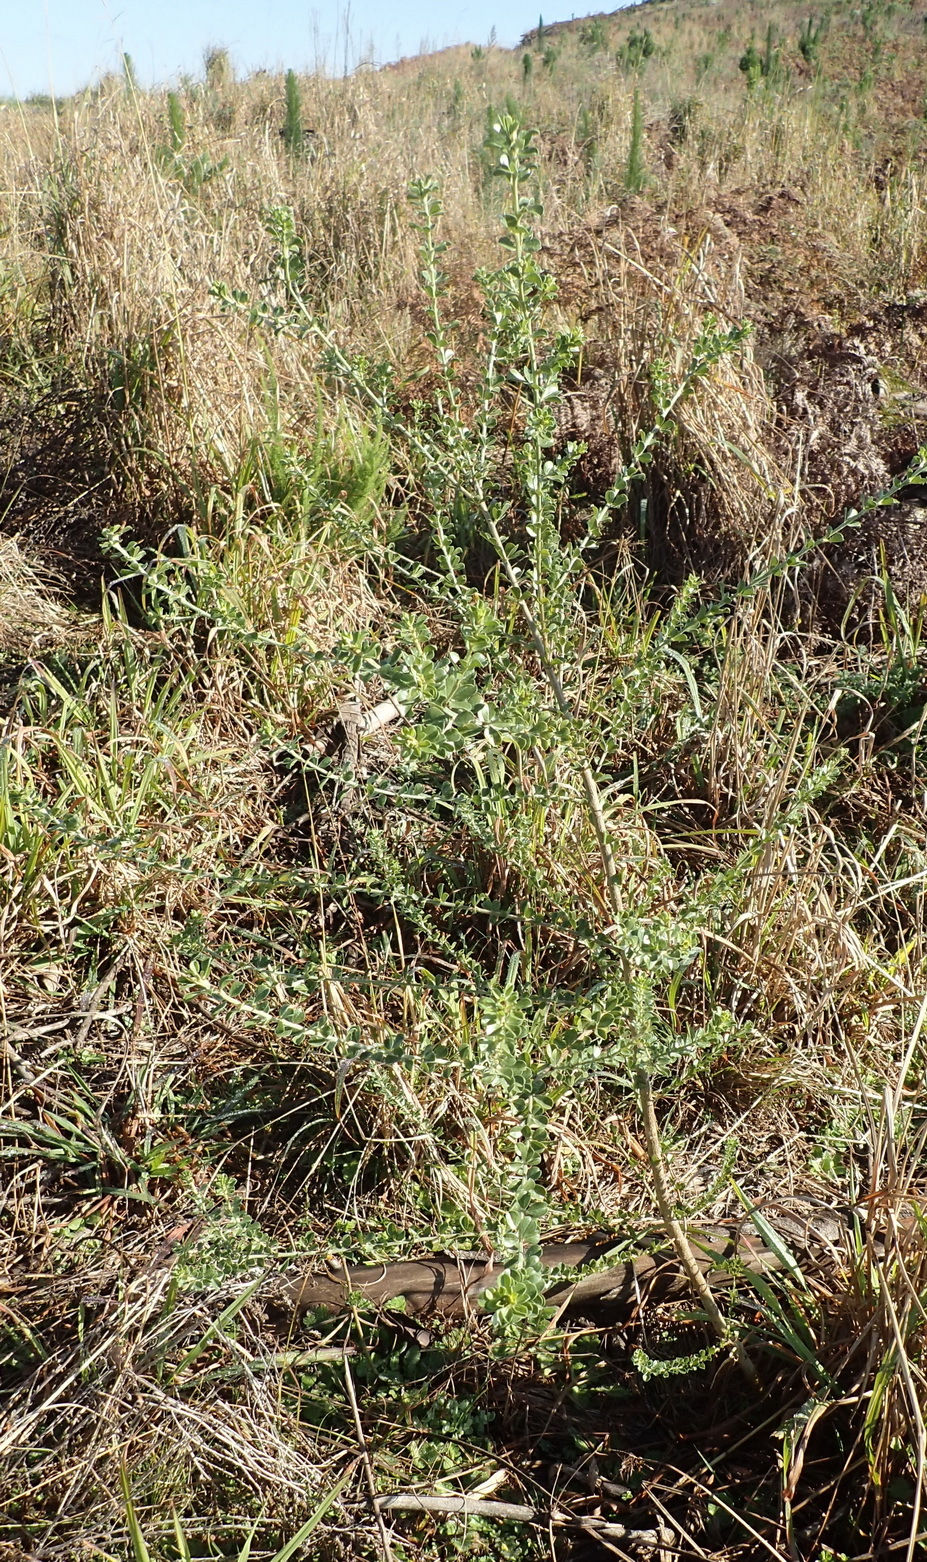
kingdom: Plantae
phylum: Tracheophyta
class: Magnoliopsida
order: Fabales
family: Fabaceae
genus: Psoralea
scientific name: Psoralea stachyera
